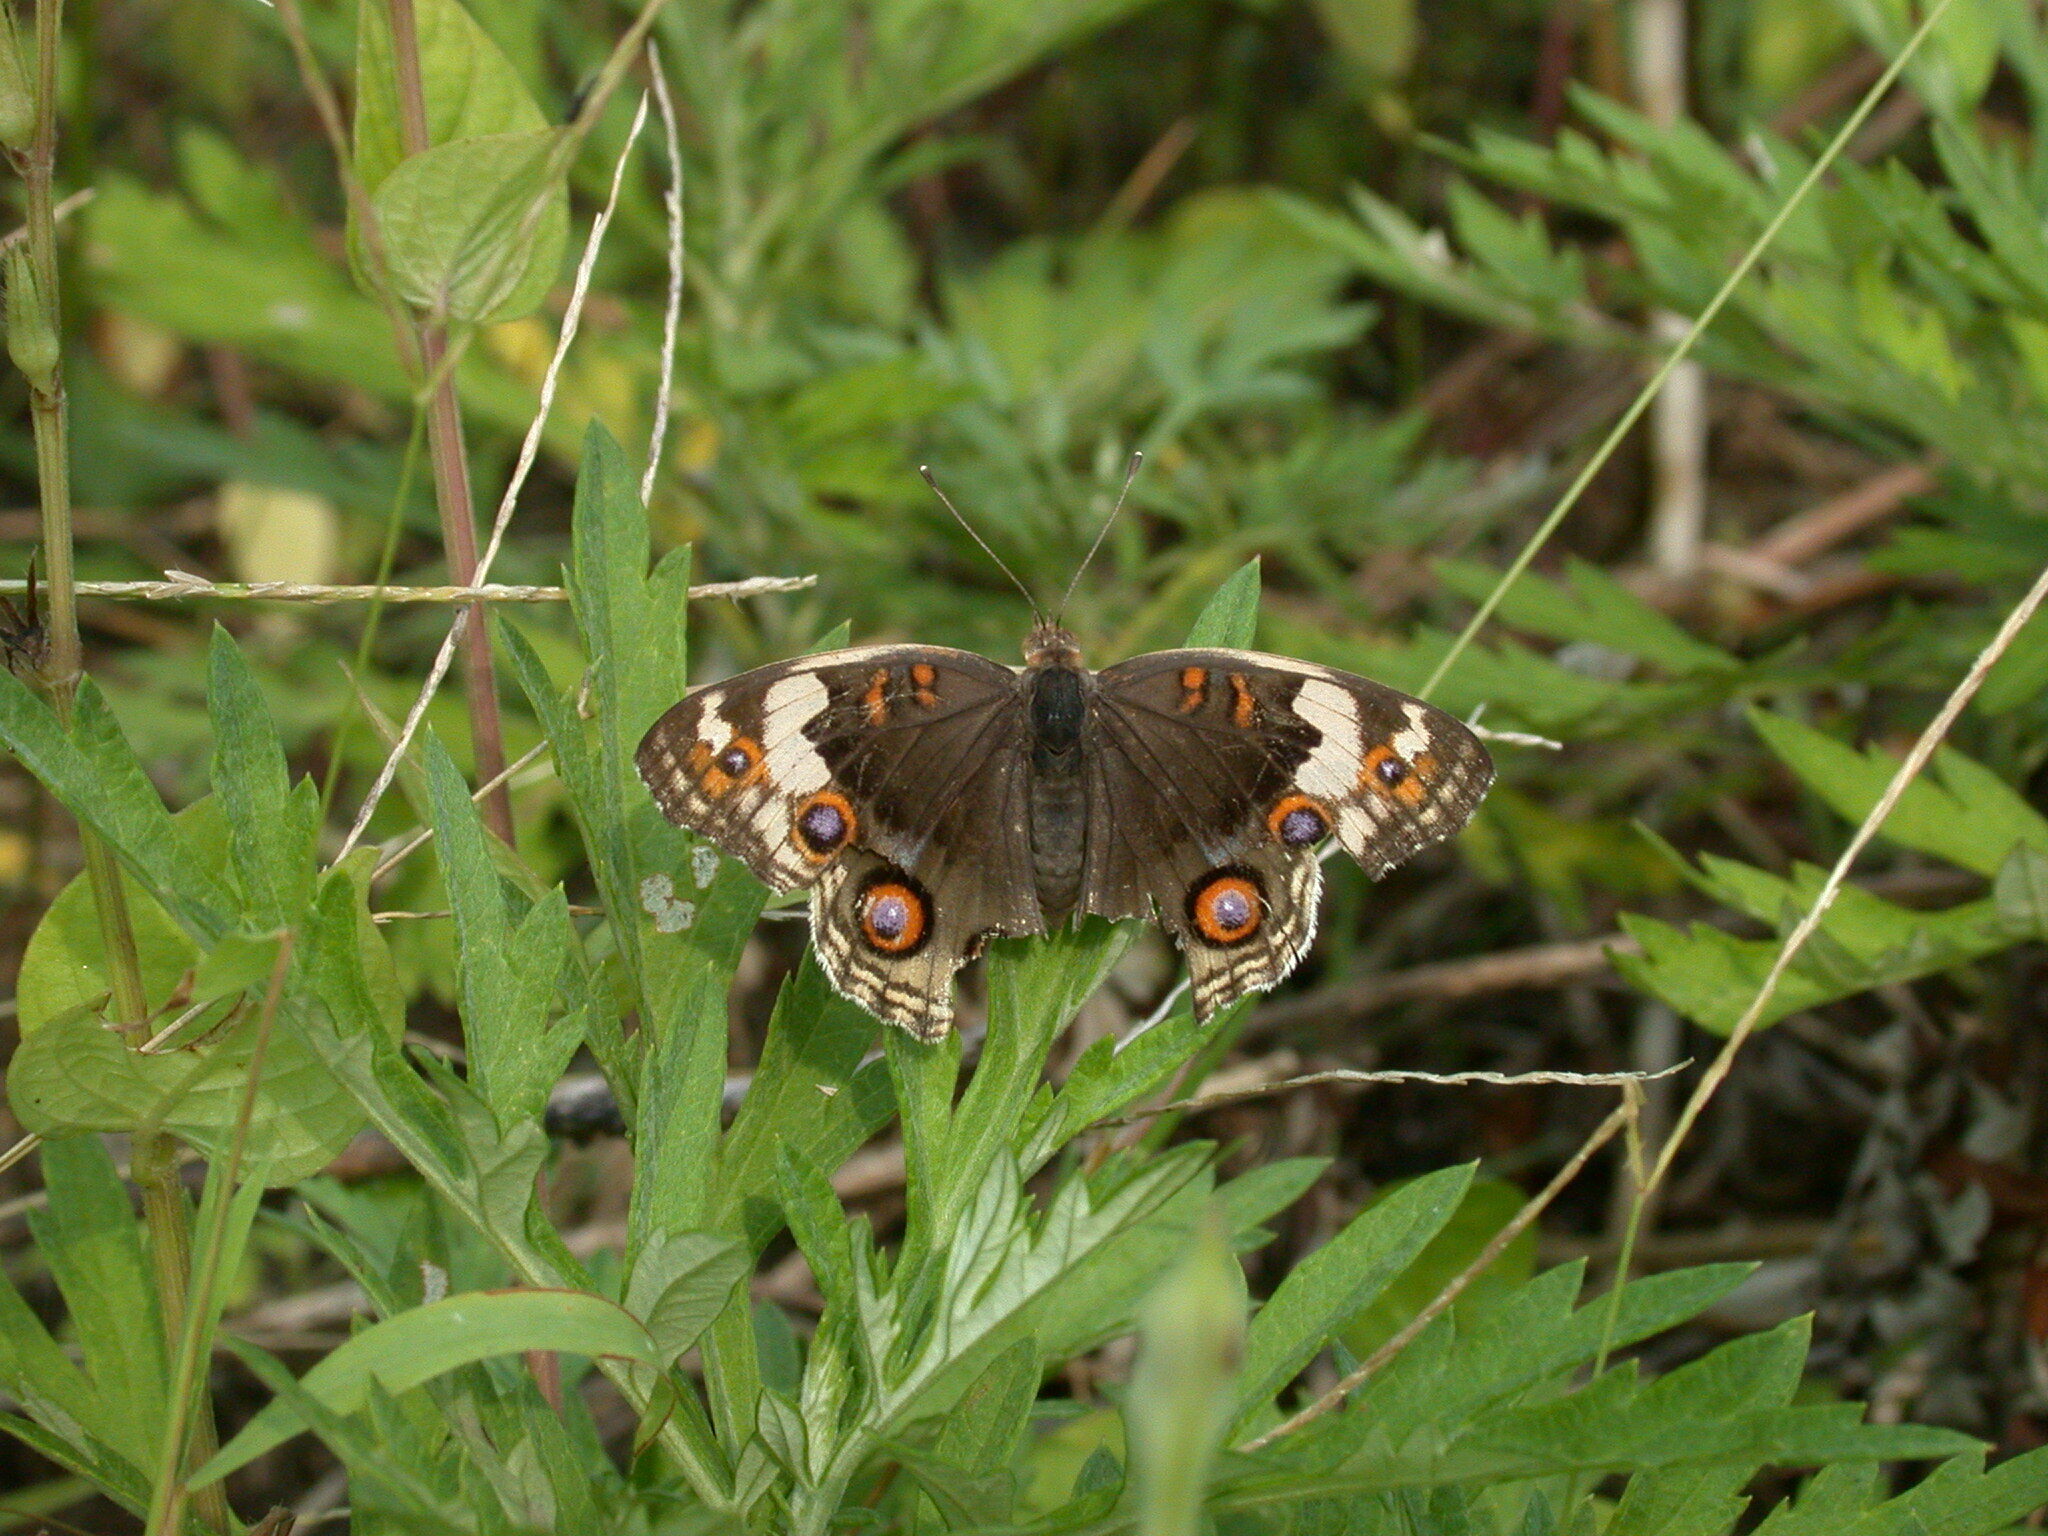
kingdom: Animalia
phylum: Arthropoda
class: Insecta
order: Lepidoptera
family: Nymphalidae
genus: Junonia
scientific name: Junonia orithya
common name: Blue pansy
